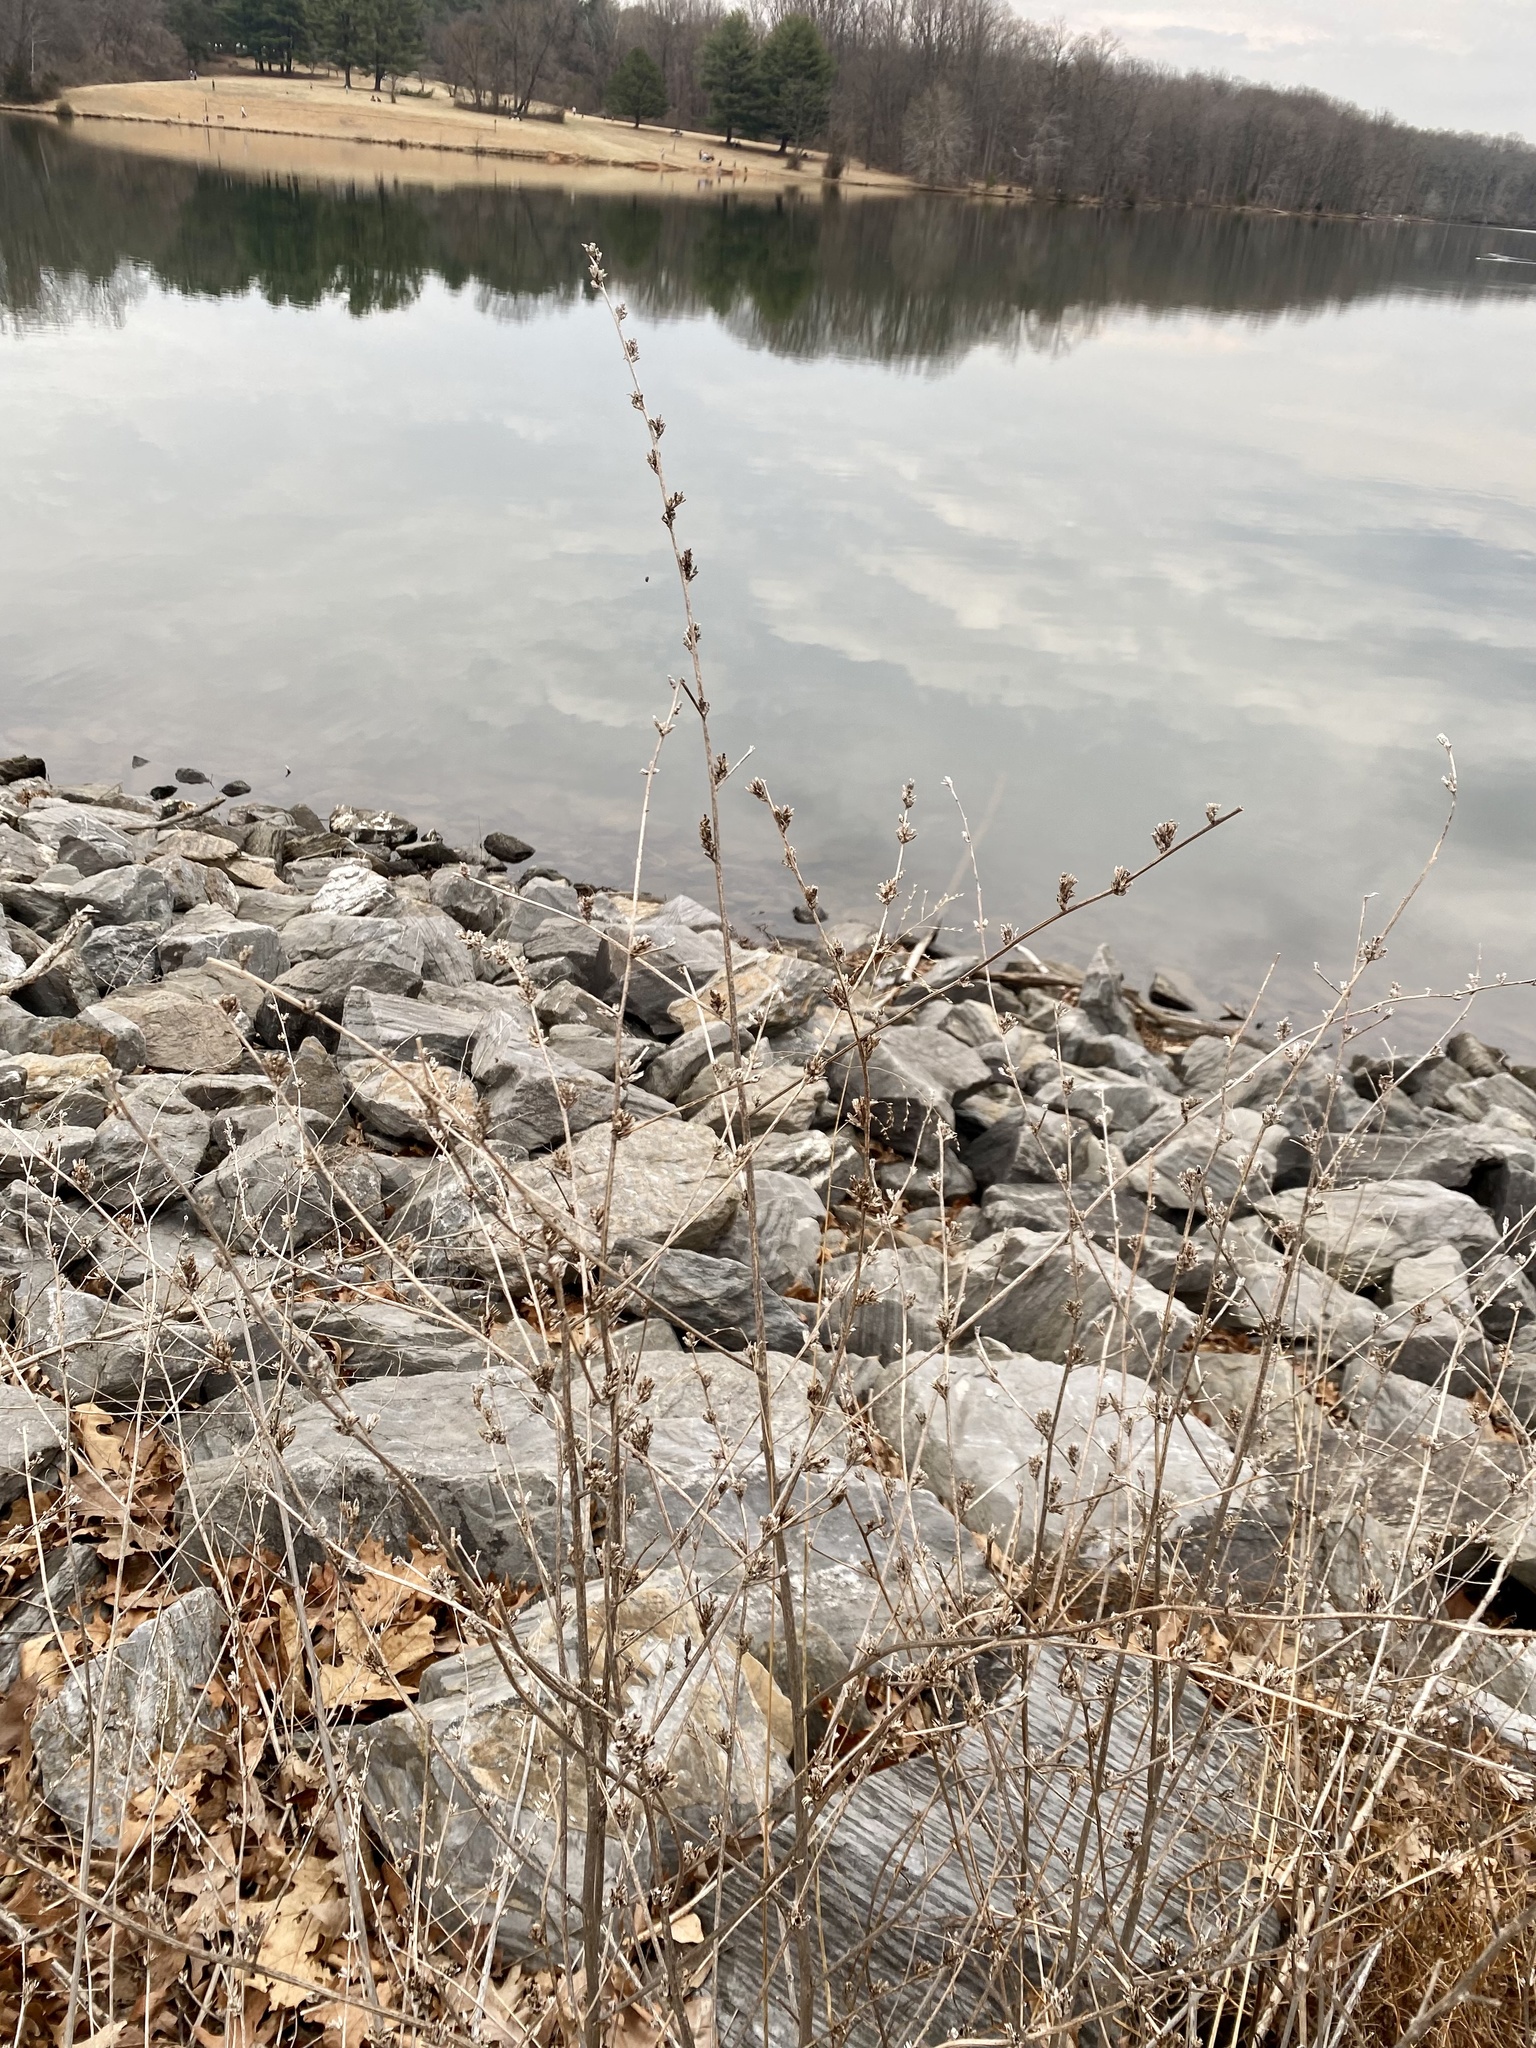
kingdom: Plantae
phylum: Tracheophyta
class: Magnoliopsida
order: Asterales
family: Asteraceae
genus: Cichorium
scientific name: Cichorium intybus
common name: Chicory
